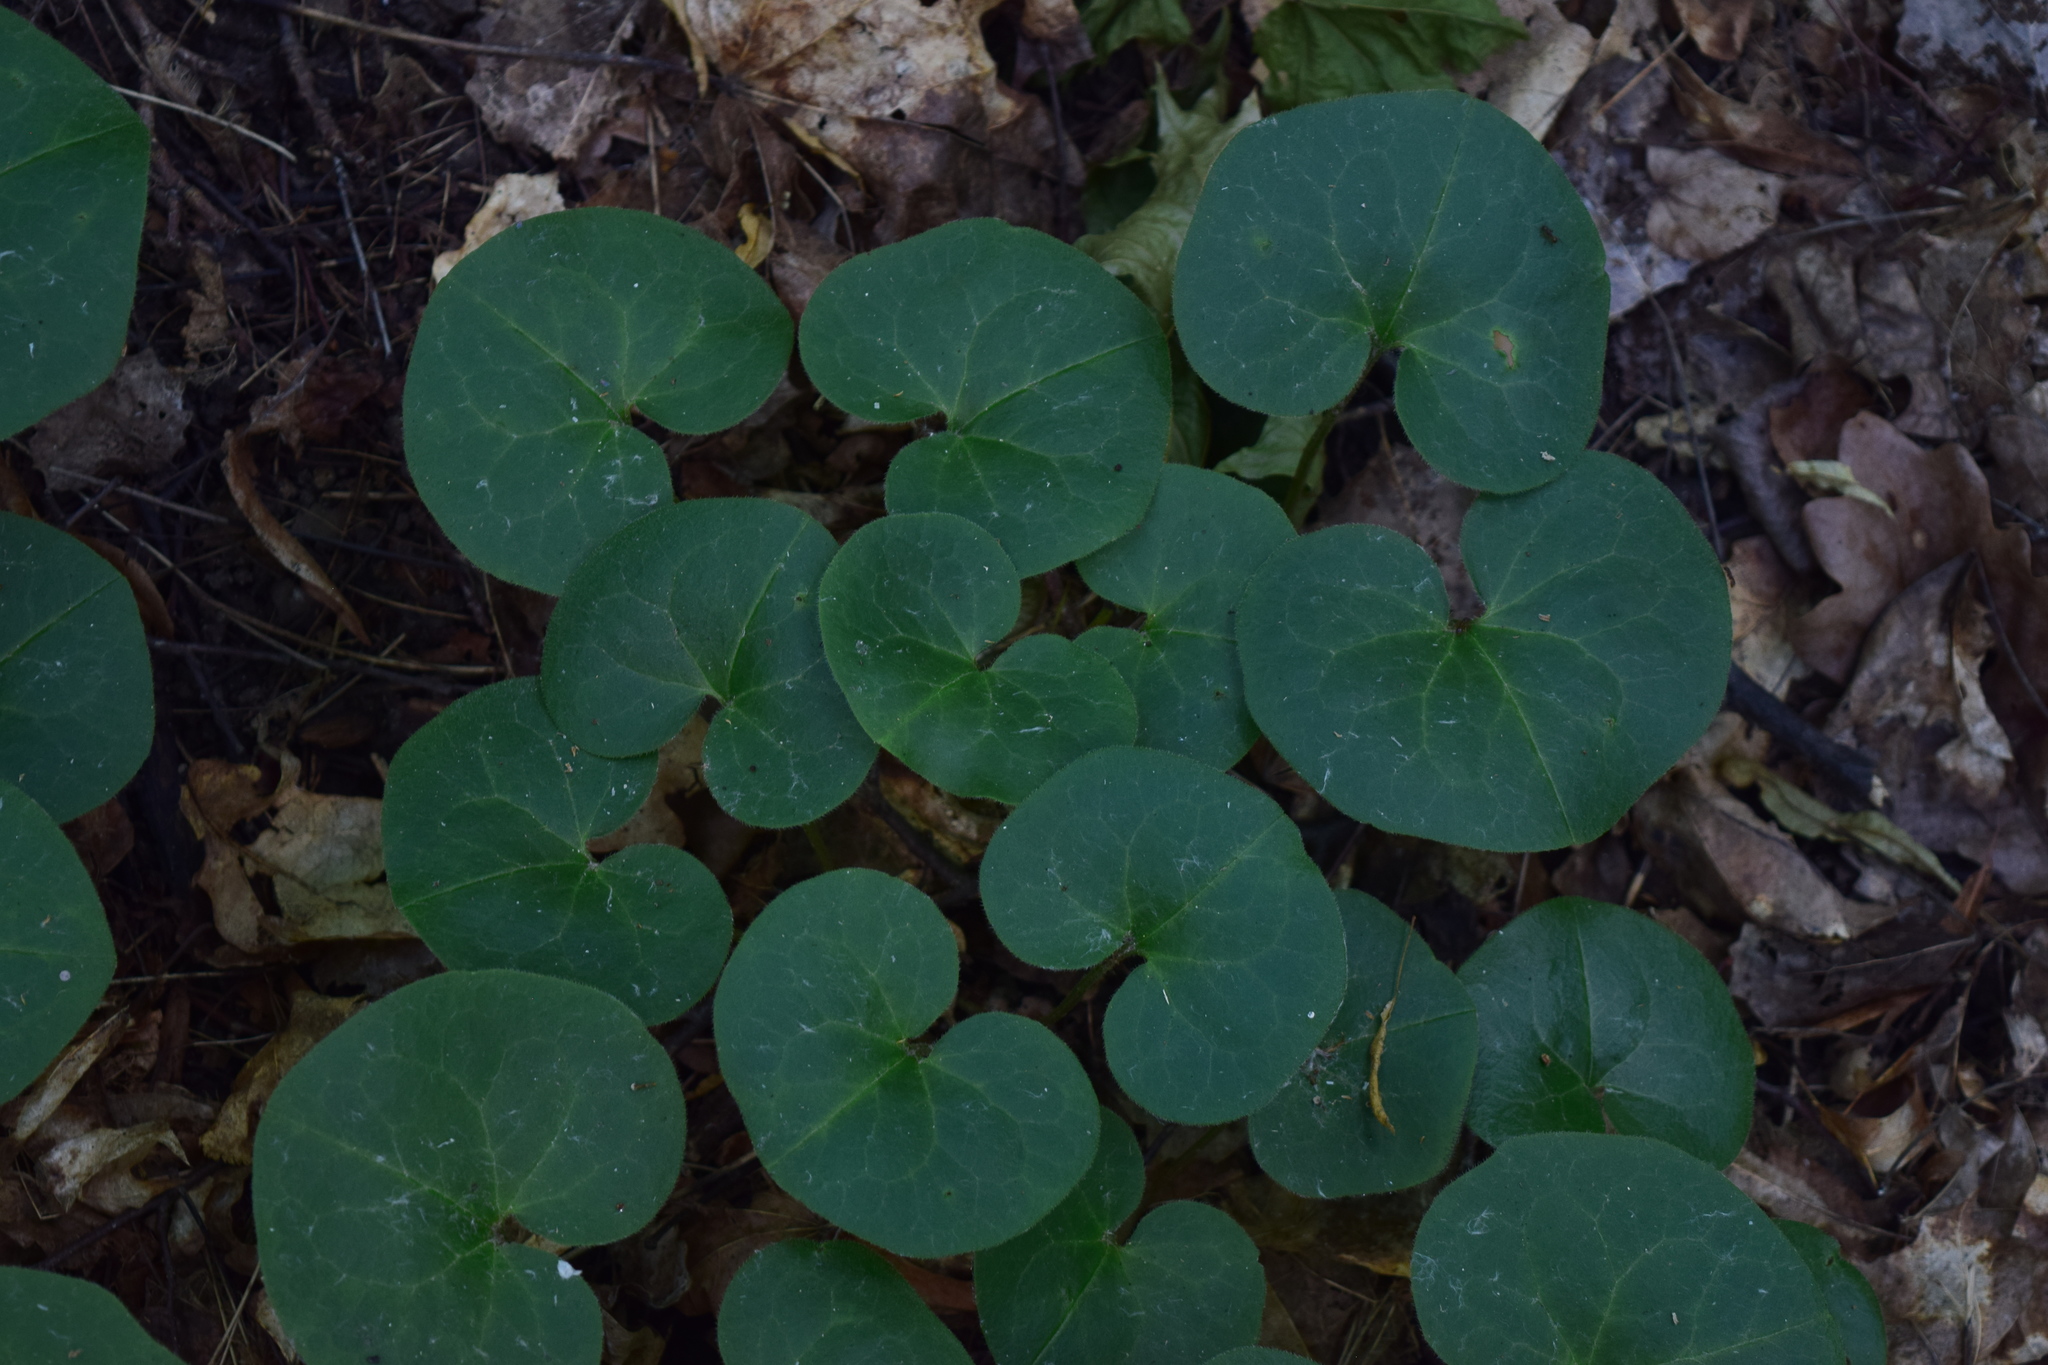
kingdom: Plantae
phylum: Tracheophyta
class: Magnoliopsida
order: Piperales
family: Aristolochiaceae
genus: Asarum
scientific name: Asarum europaeum
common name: Asarabacca
